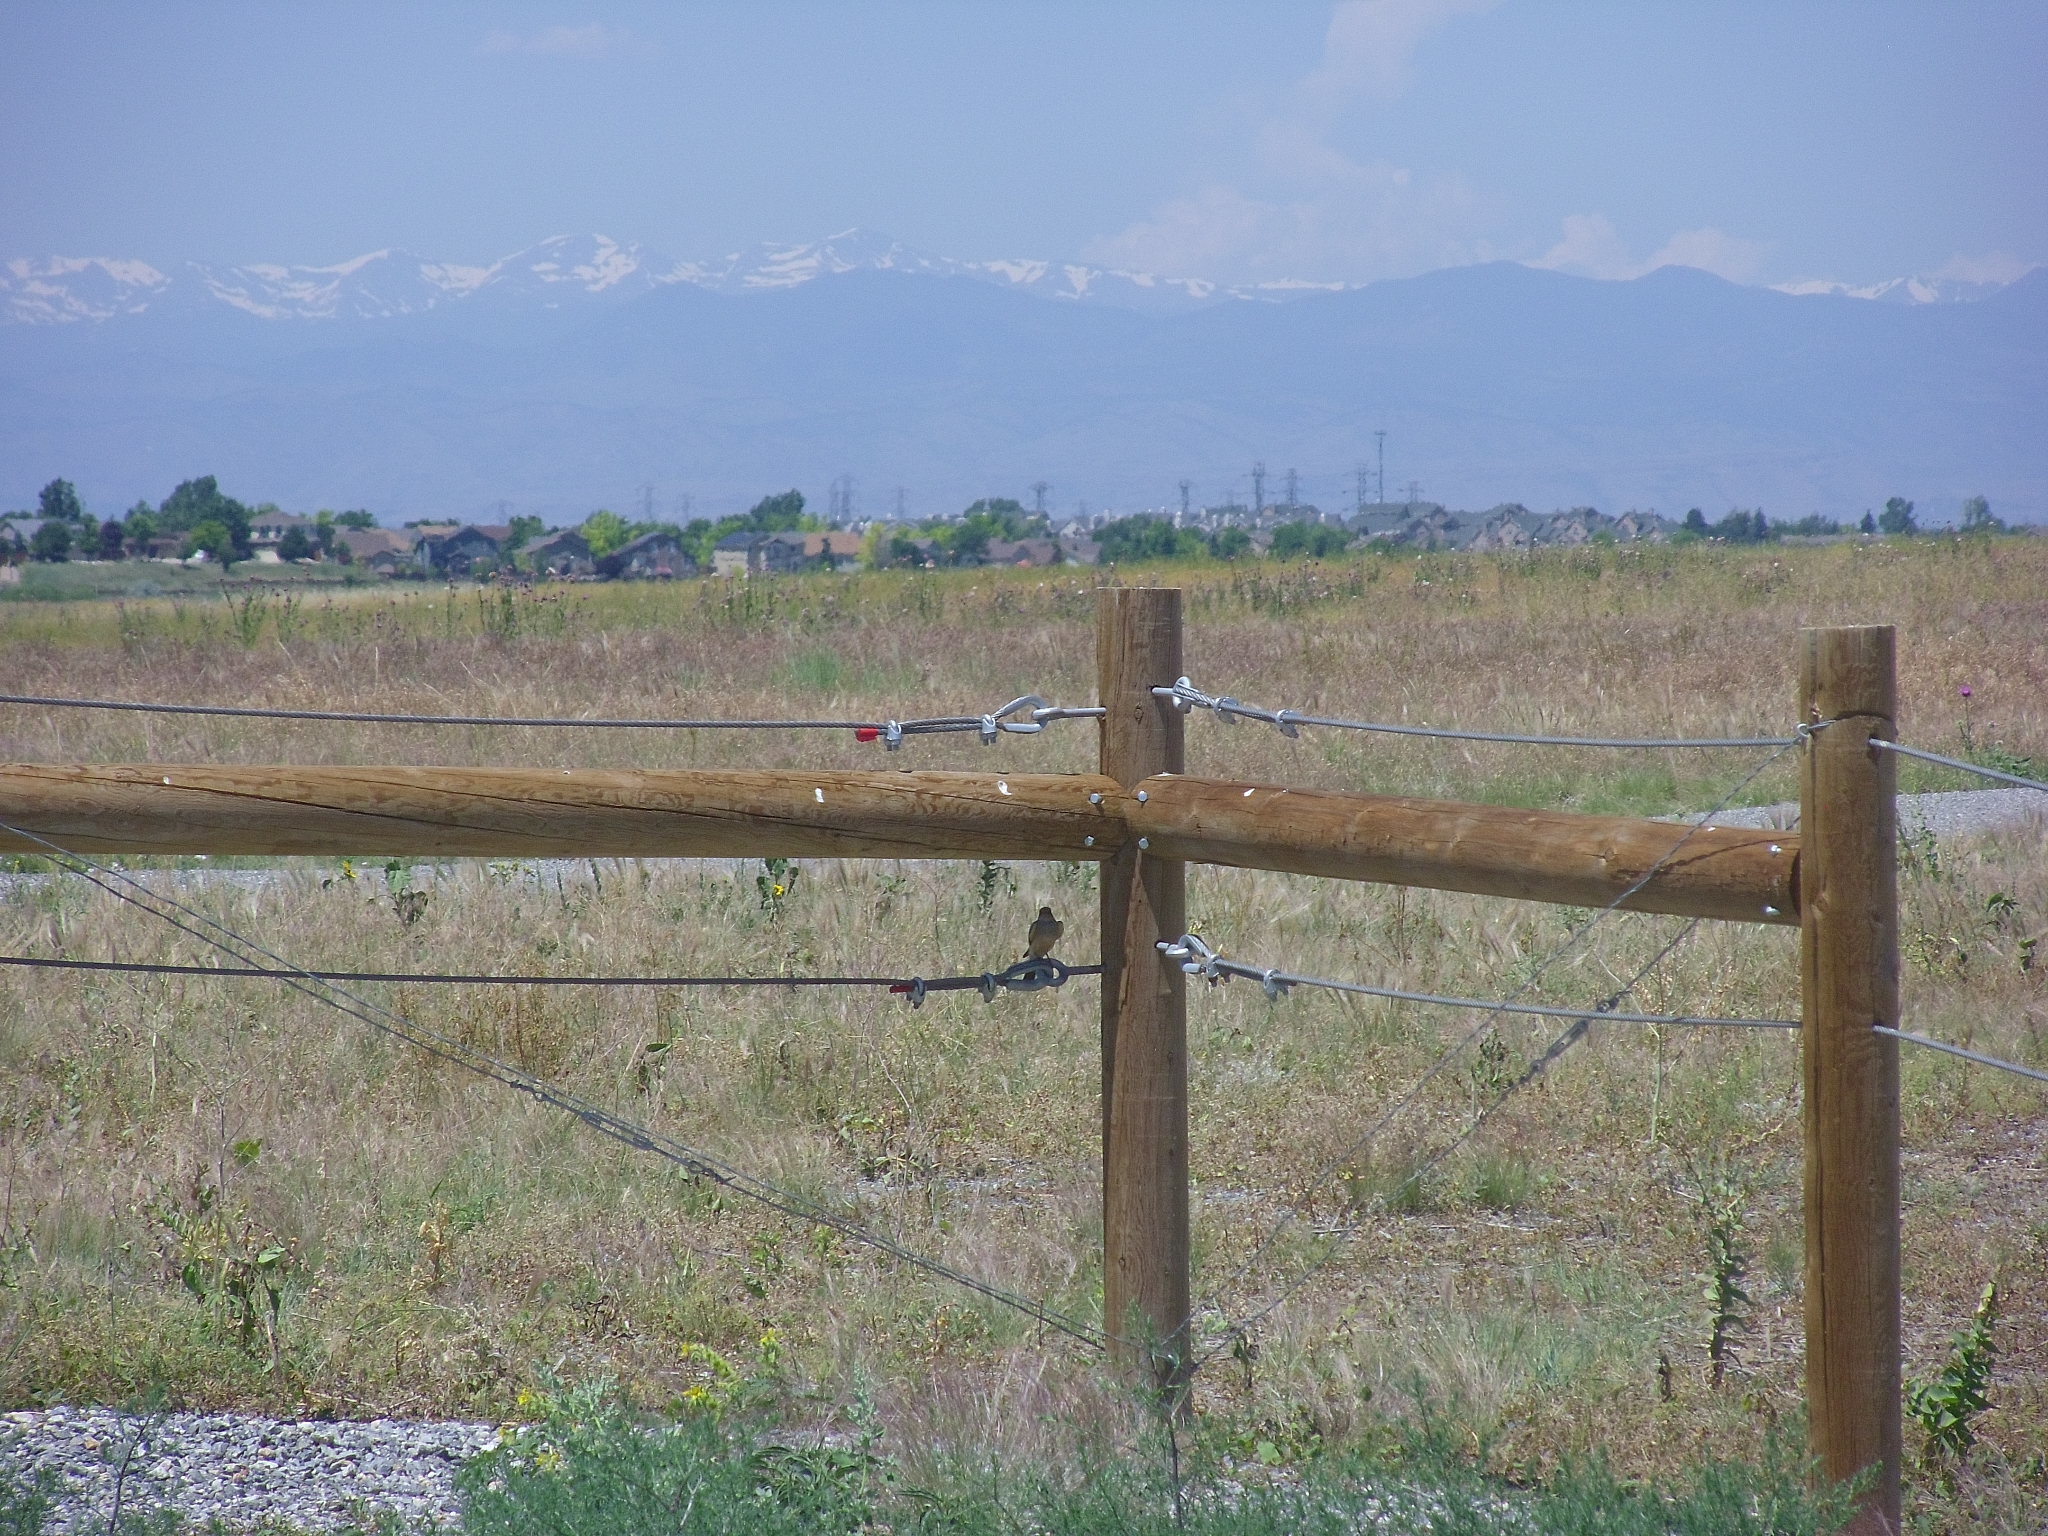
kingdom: Animalia
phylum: Chordata
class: Aves
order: Passeriformes
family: Tyrannidae
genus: Tyrannus
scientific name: Tyrannus verticalis
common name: Western kingbird
